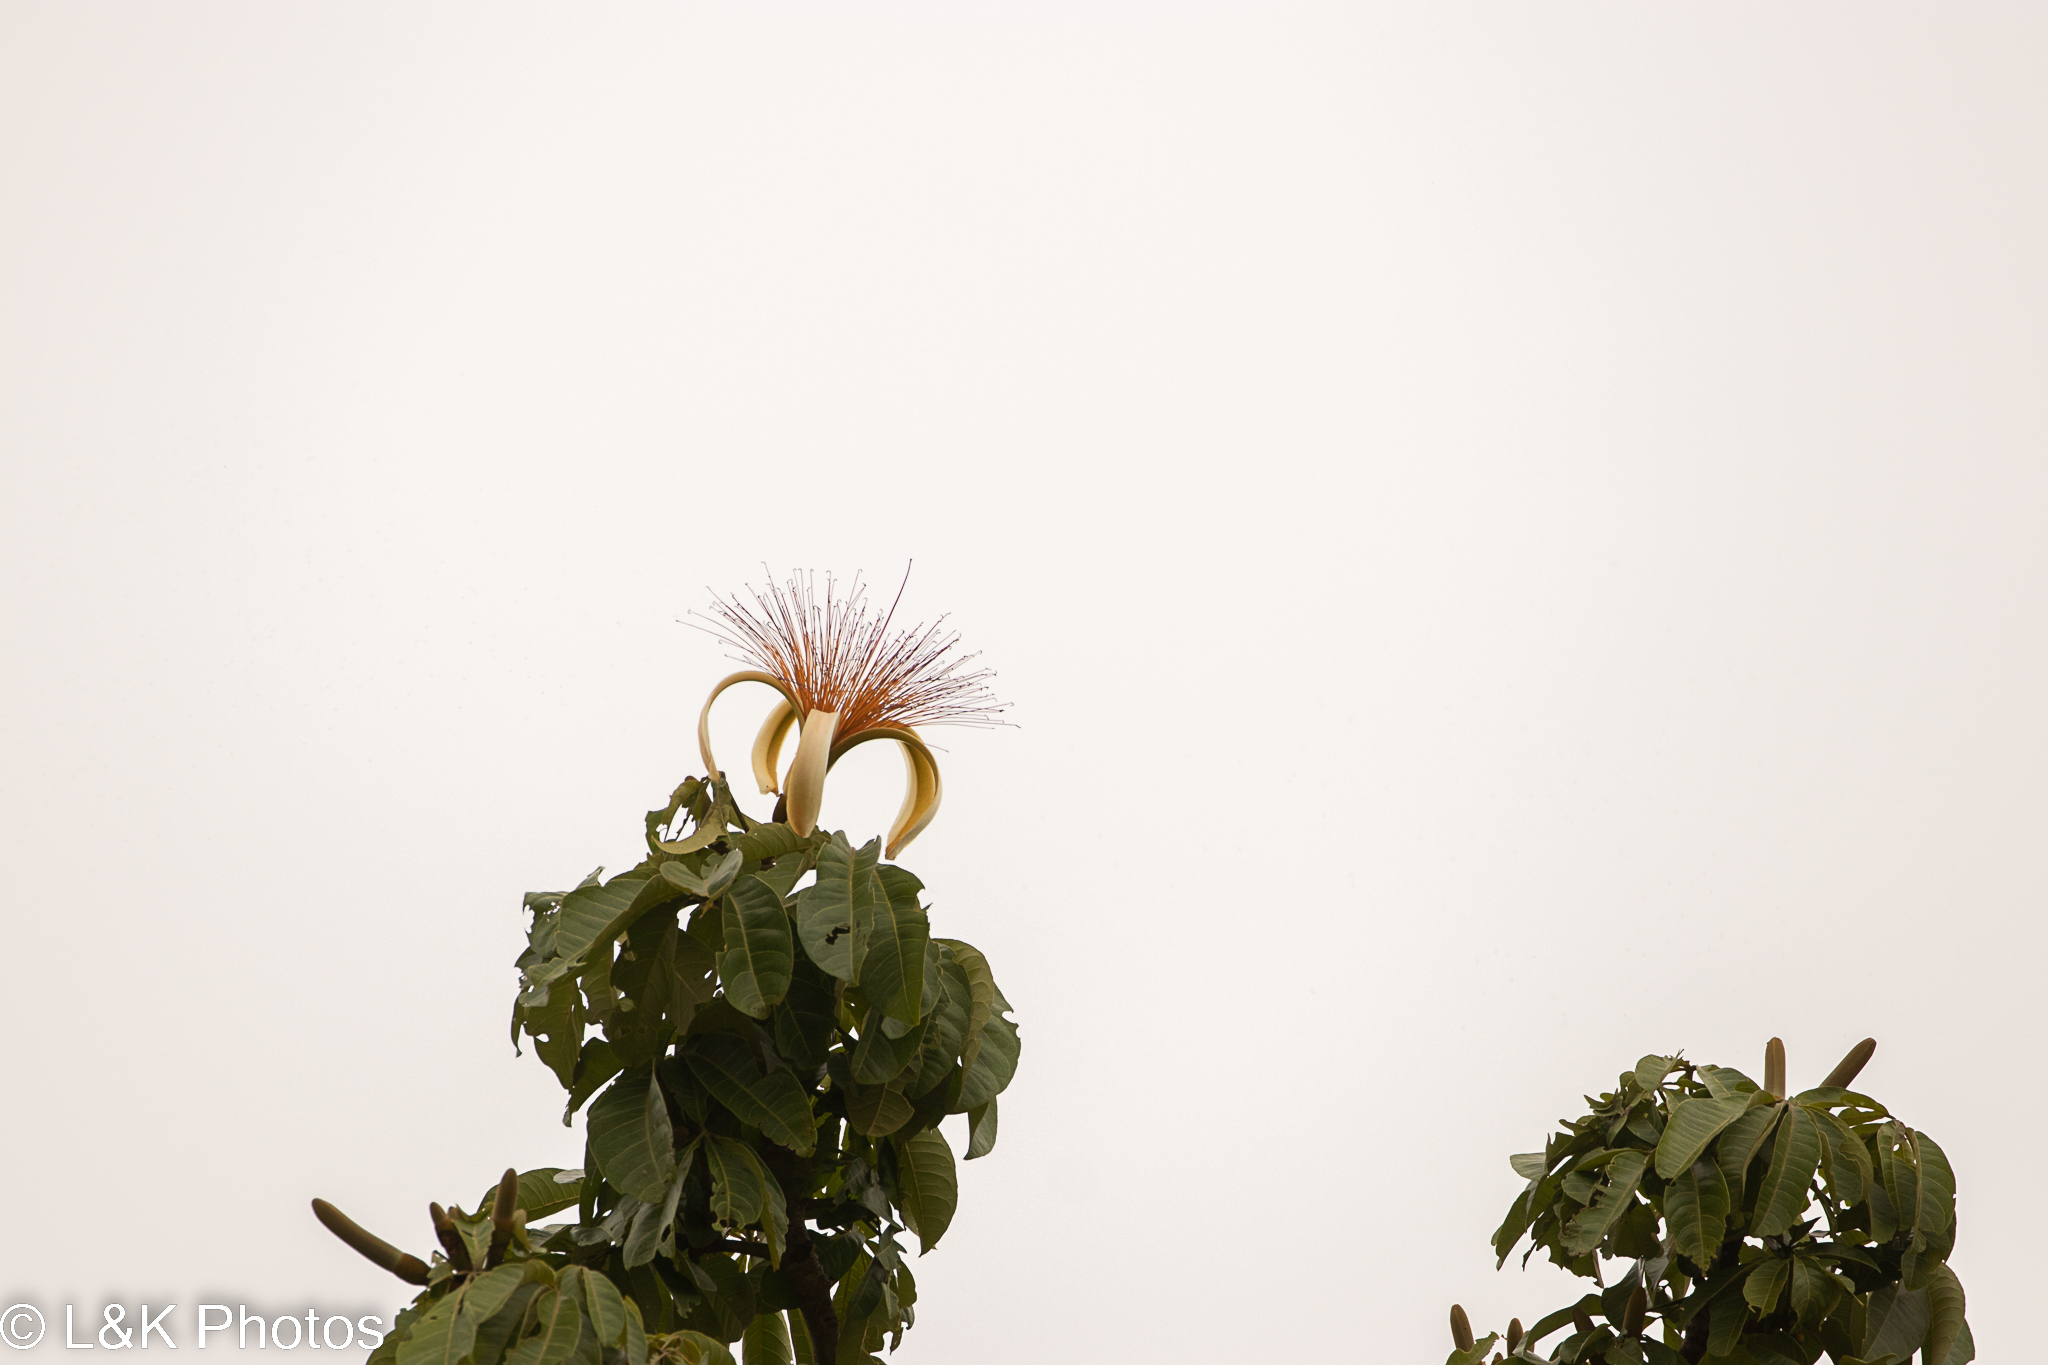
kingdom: Plantae
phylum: Tracheophyta
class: Magnoliopsida
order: Malvales
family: Malvaceae
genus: Pachira
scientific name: Pachira aquatica
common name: Provision-tree
